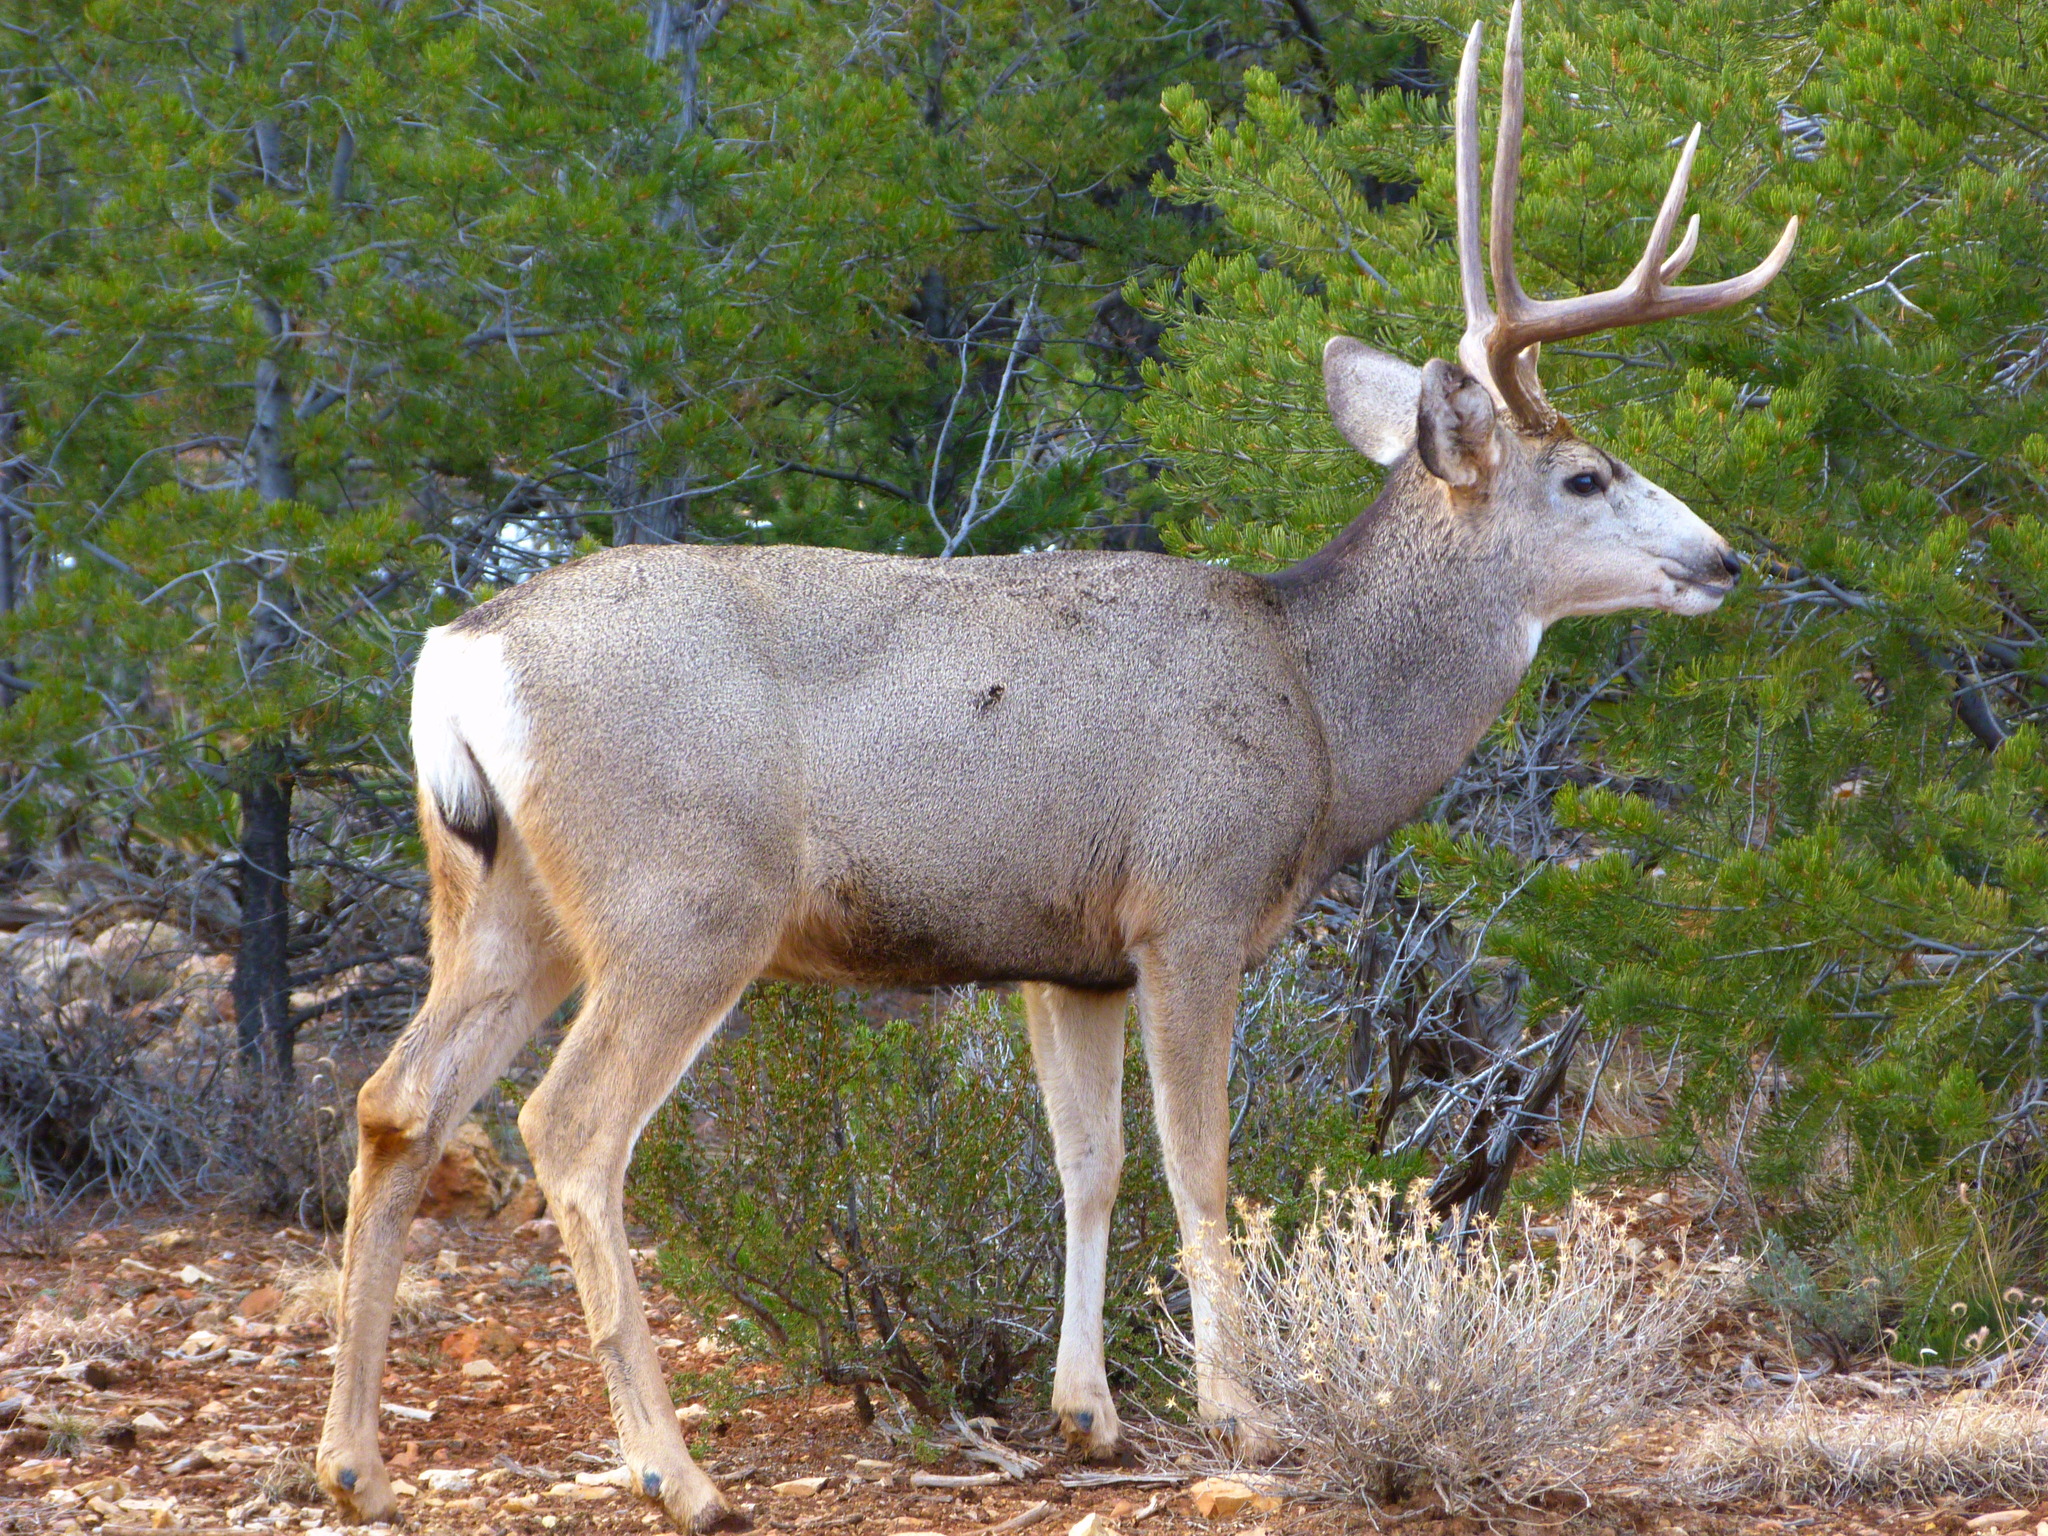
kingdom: Animalia
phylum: Chordata
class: Mammalia
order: Artiodactyla
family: Cervidae
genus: Odocoileus
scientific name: Odocoileus hemionus
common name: Mule deer
